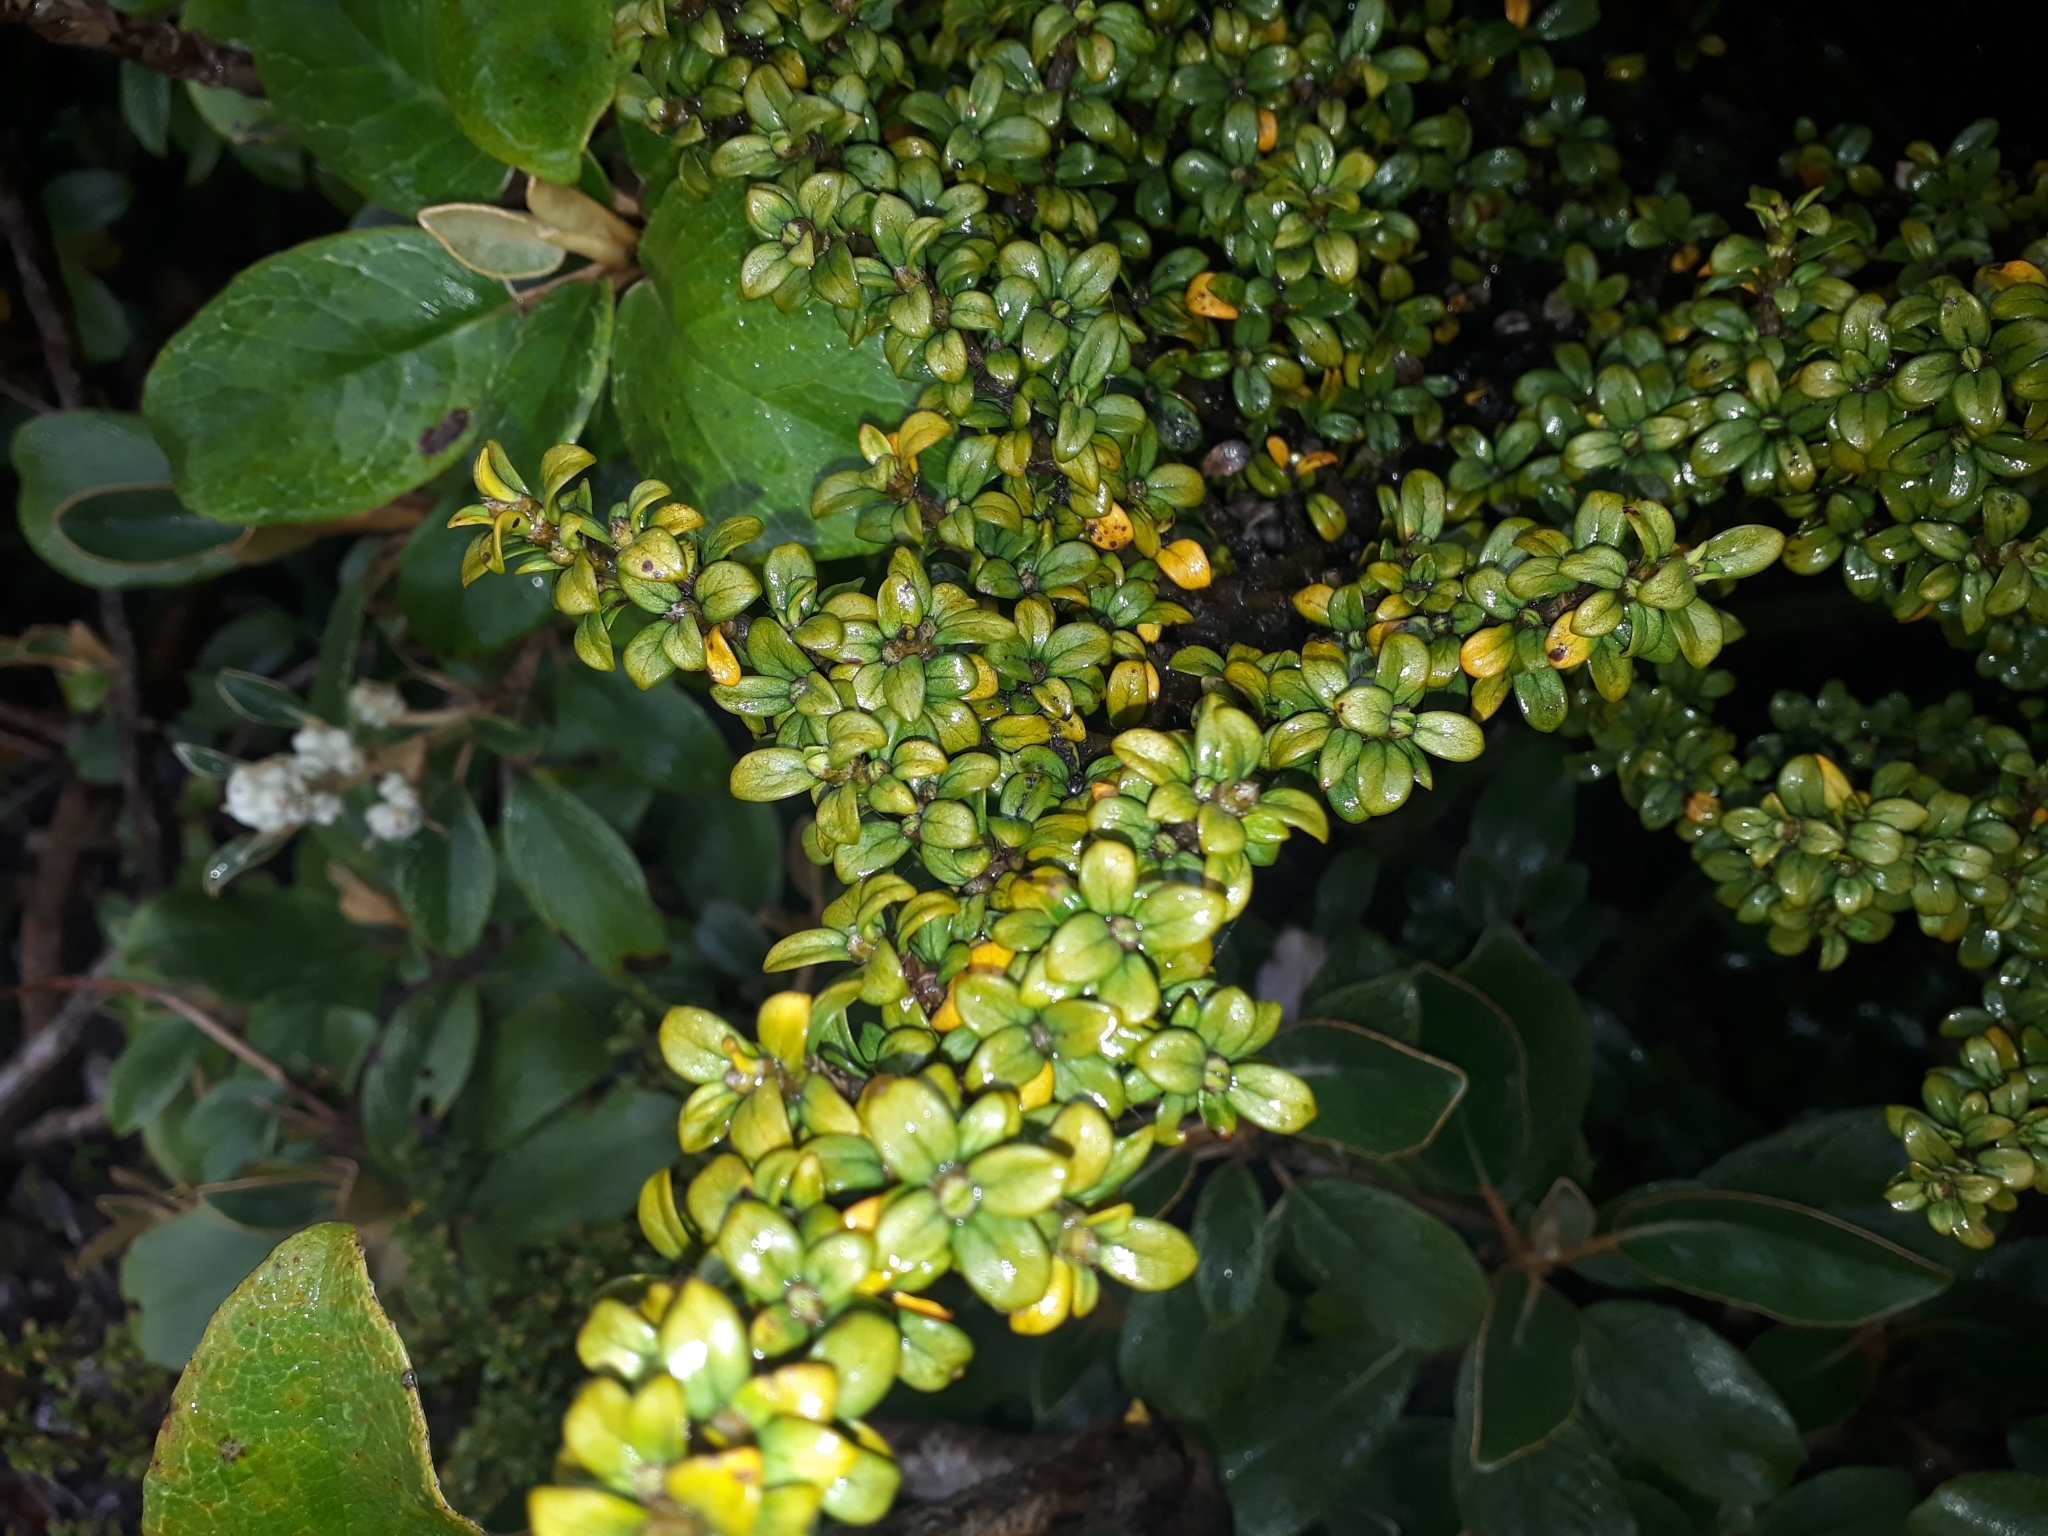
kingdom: Plantae
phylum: Tracheophyta
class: Magnoliopsida
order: Gentianales
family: Rubiaceae
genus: Coprosma
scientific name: Coprosma pseudocuneata
